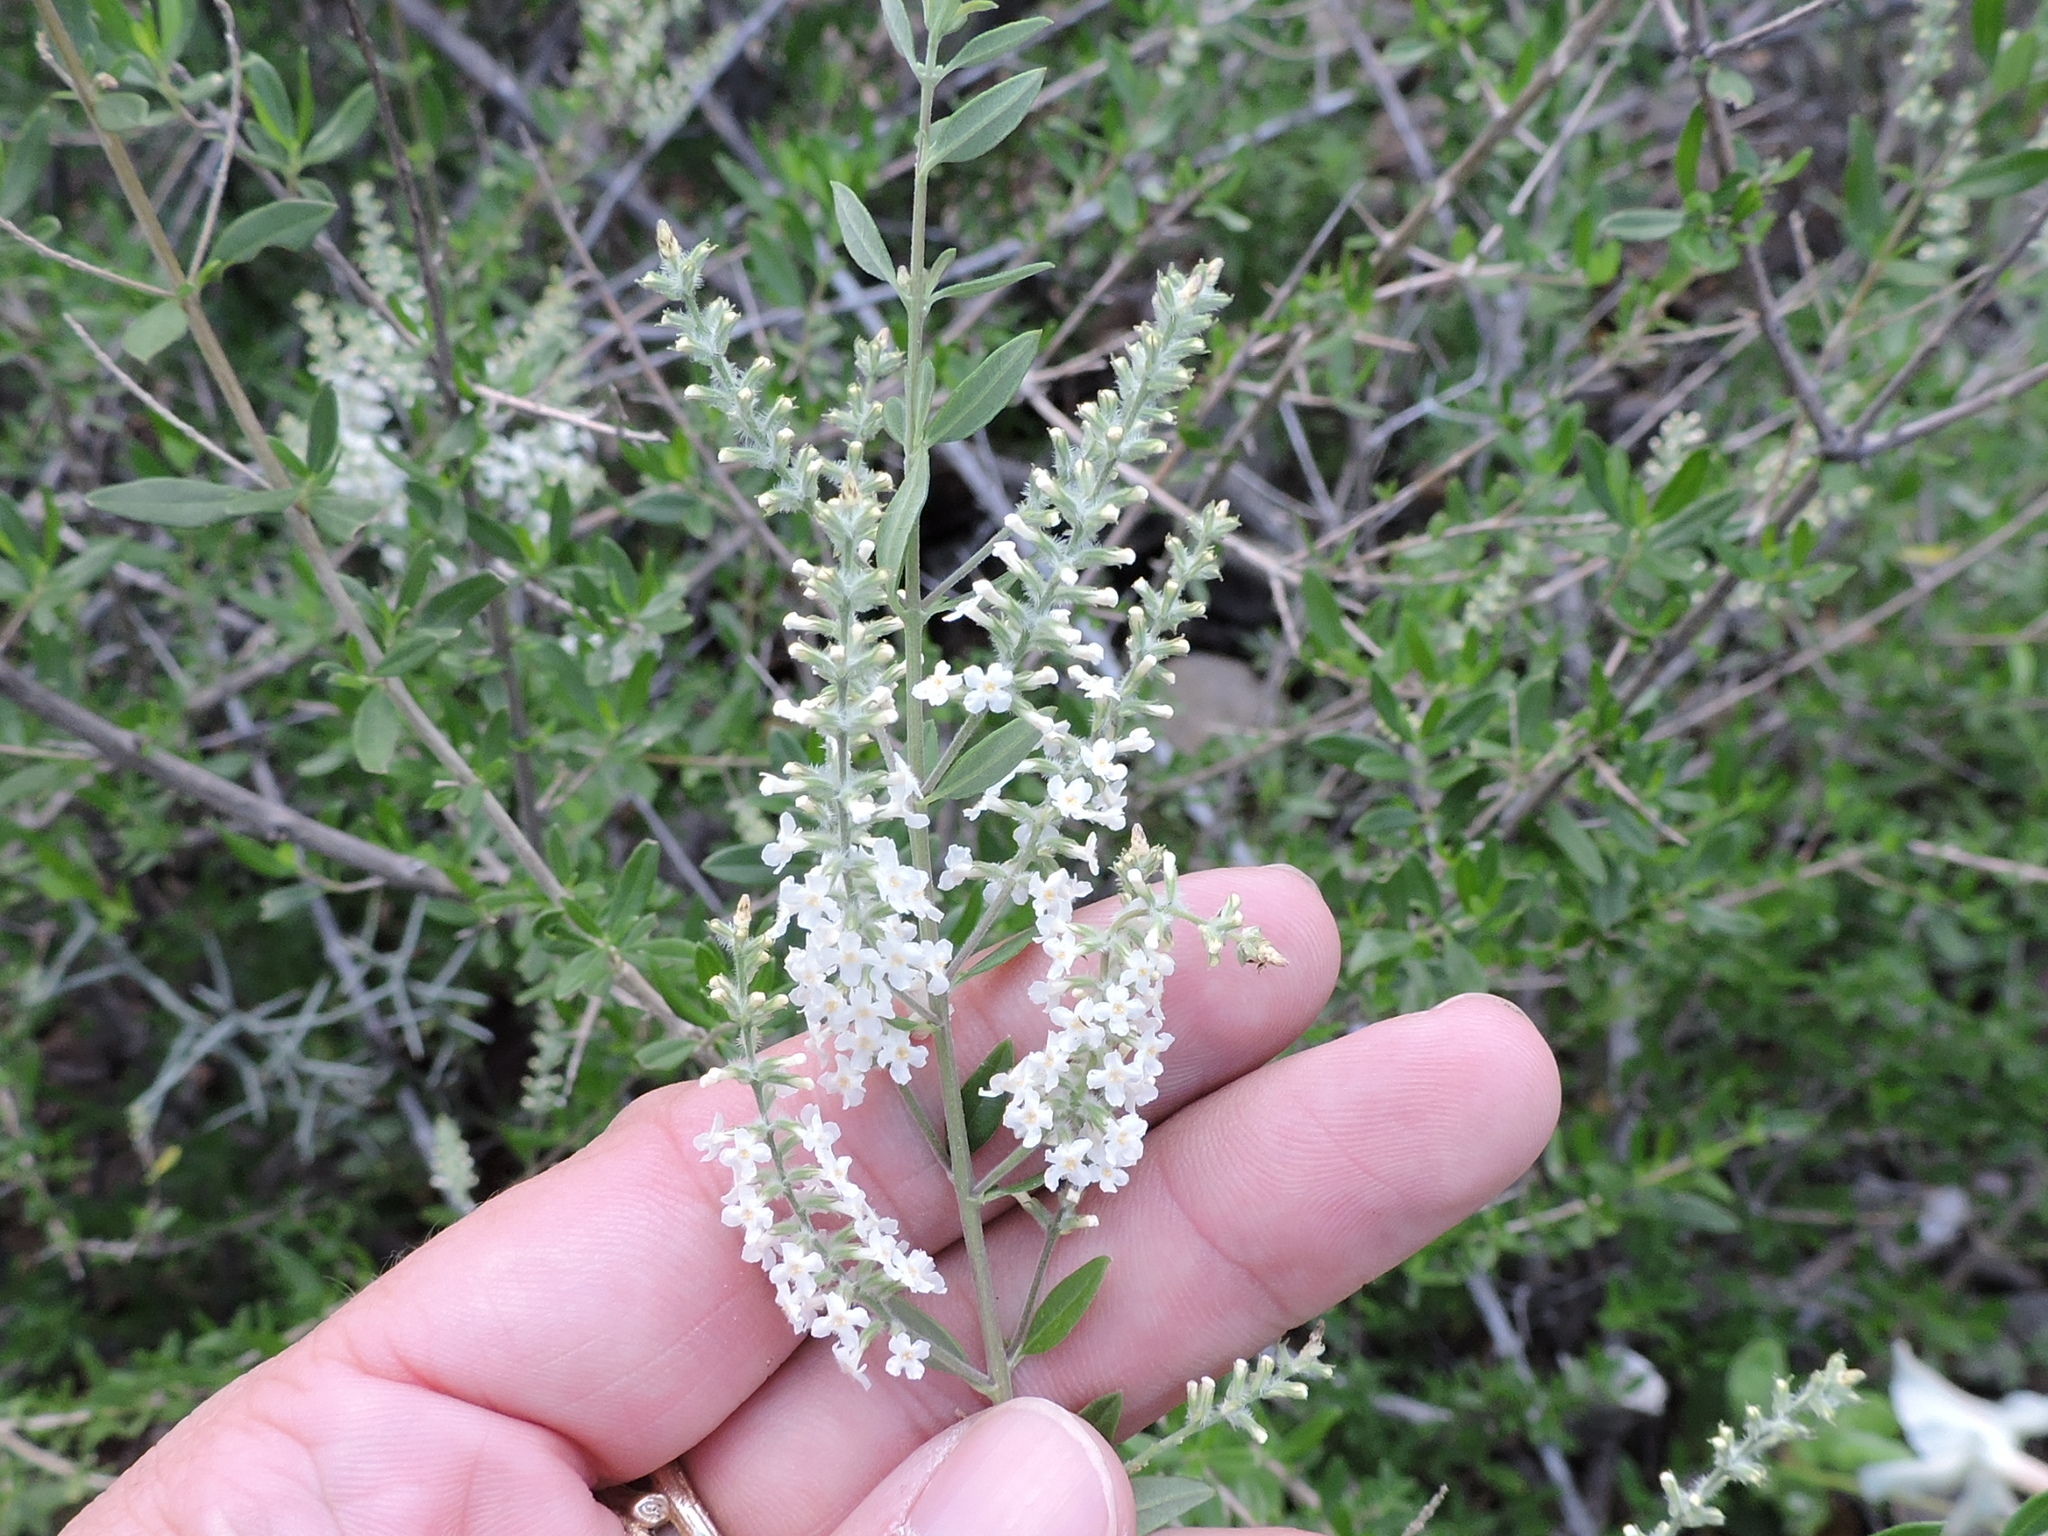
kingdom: Plantae
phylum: Tracheophyta
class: Magnoliopsida
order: Lamiales
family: Verbenaceae
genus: Aloysia
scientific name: Aloysia gratissima
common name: Common bee-brush
